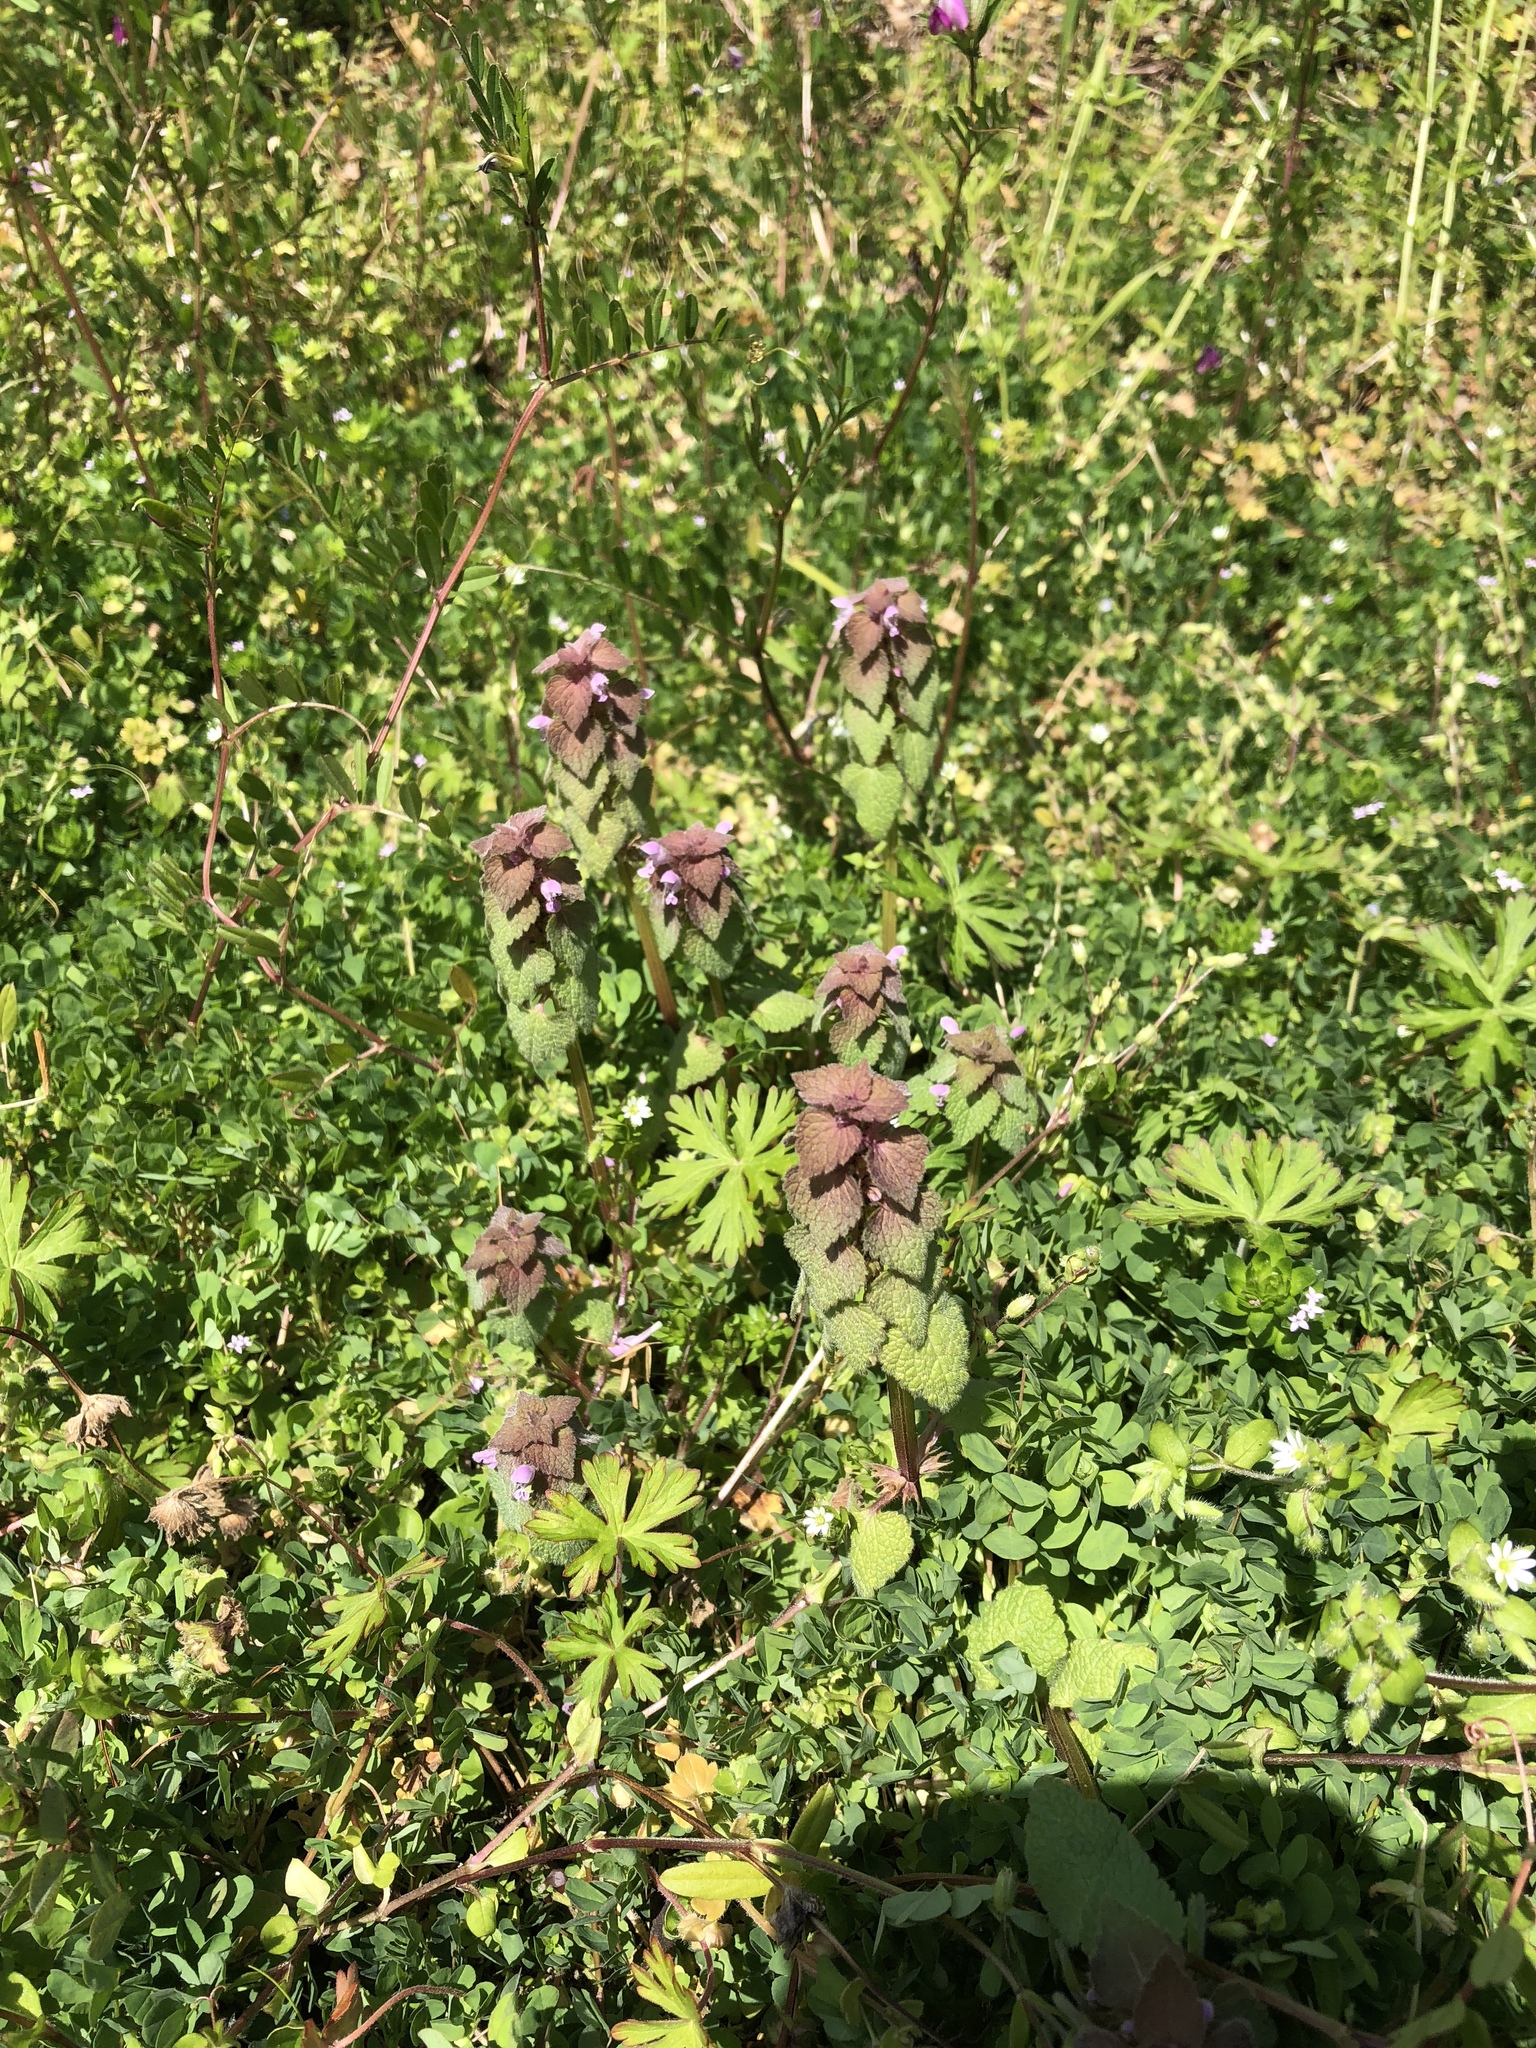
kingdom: Plantae
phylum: Tracheophyta
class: Magnoliopsida
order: Lamiales
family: Lamiaceae
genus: Lamium
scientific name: Lamium purpureum
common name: Red dead-nettle
